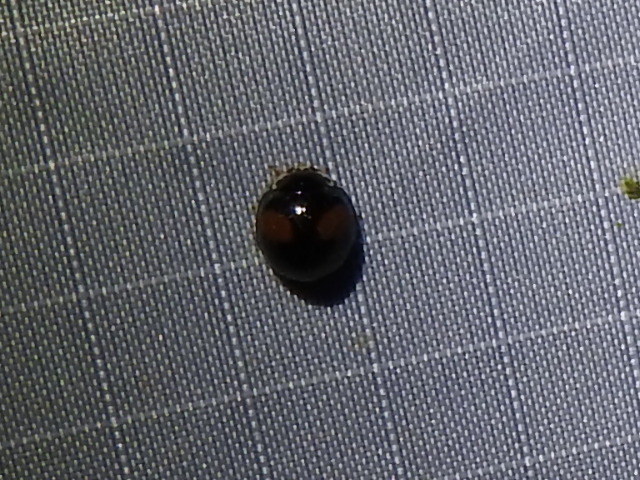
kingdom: Animalia
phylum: Arthropoda
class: Insecta
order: Coleoptera
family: Coccinellidae
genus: Olla
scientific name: Olla v-nigrum
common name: Ashy gray lady beetle
